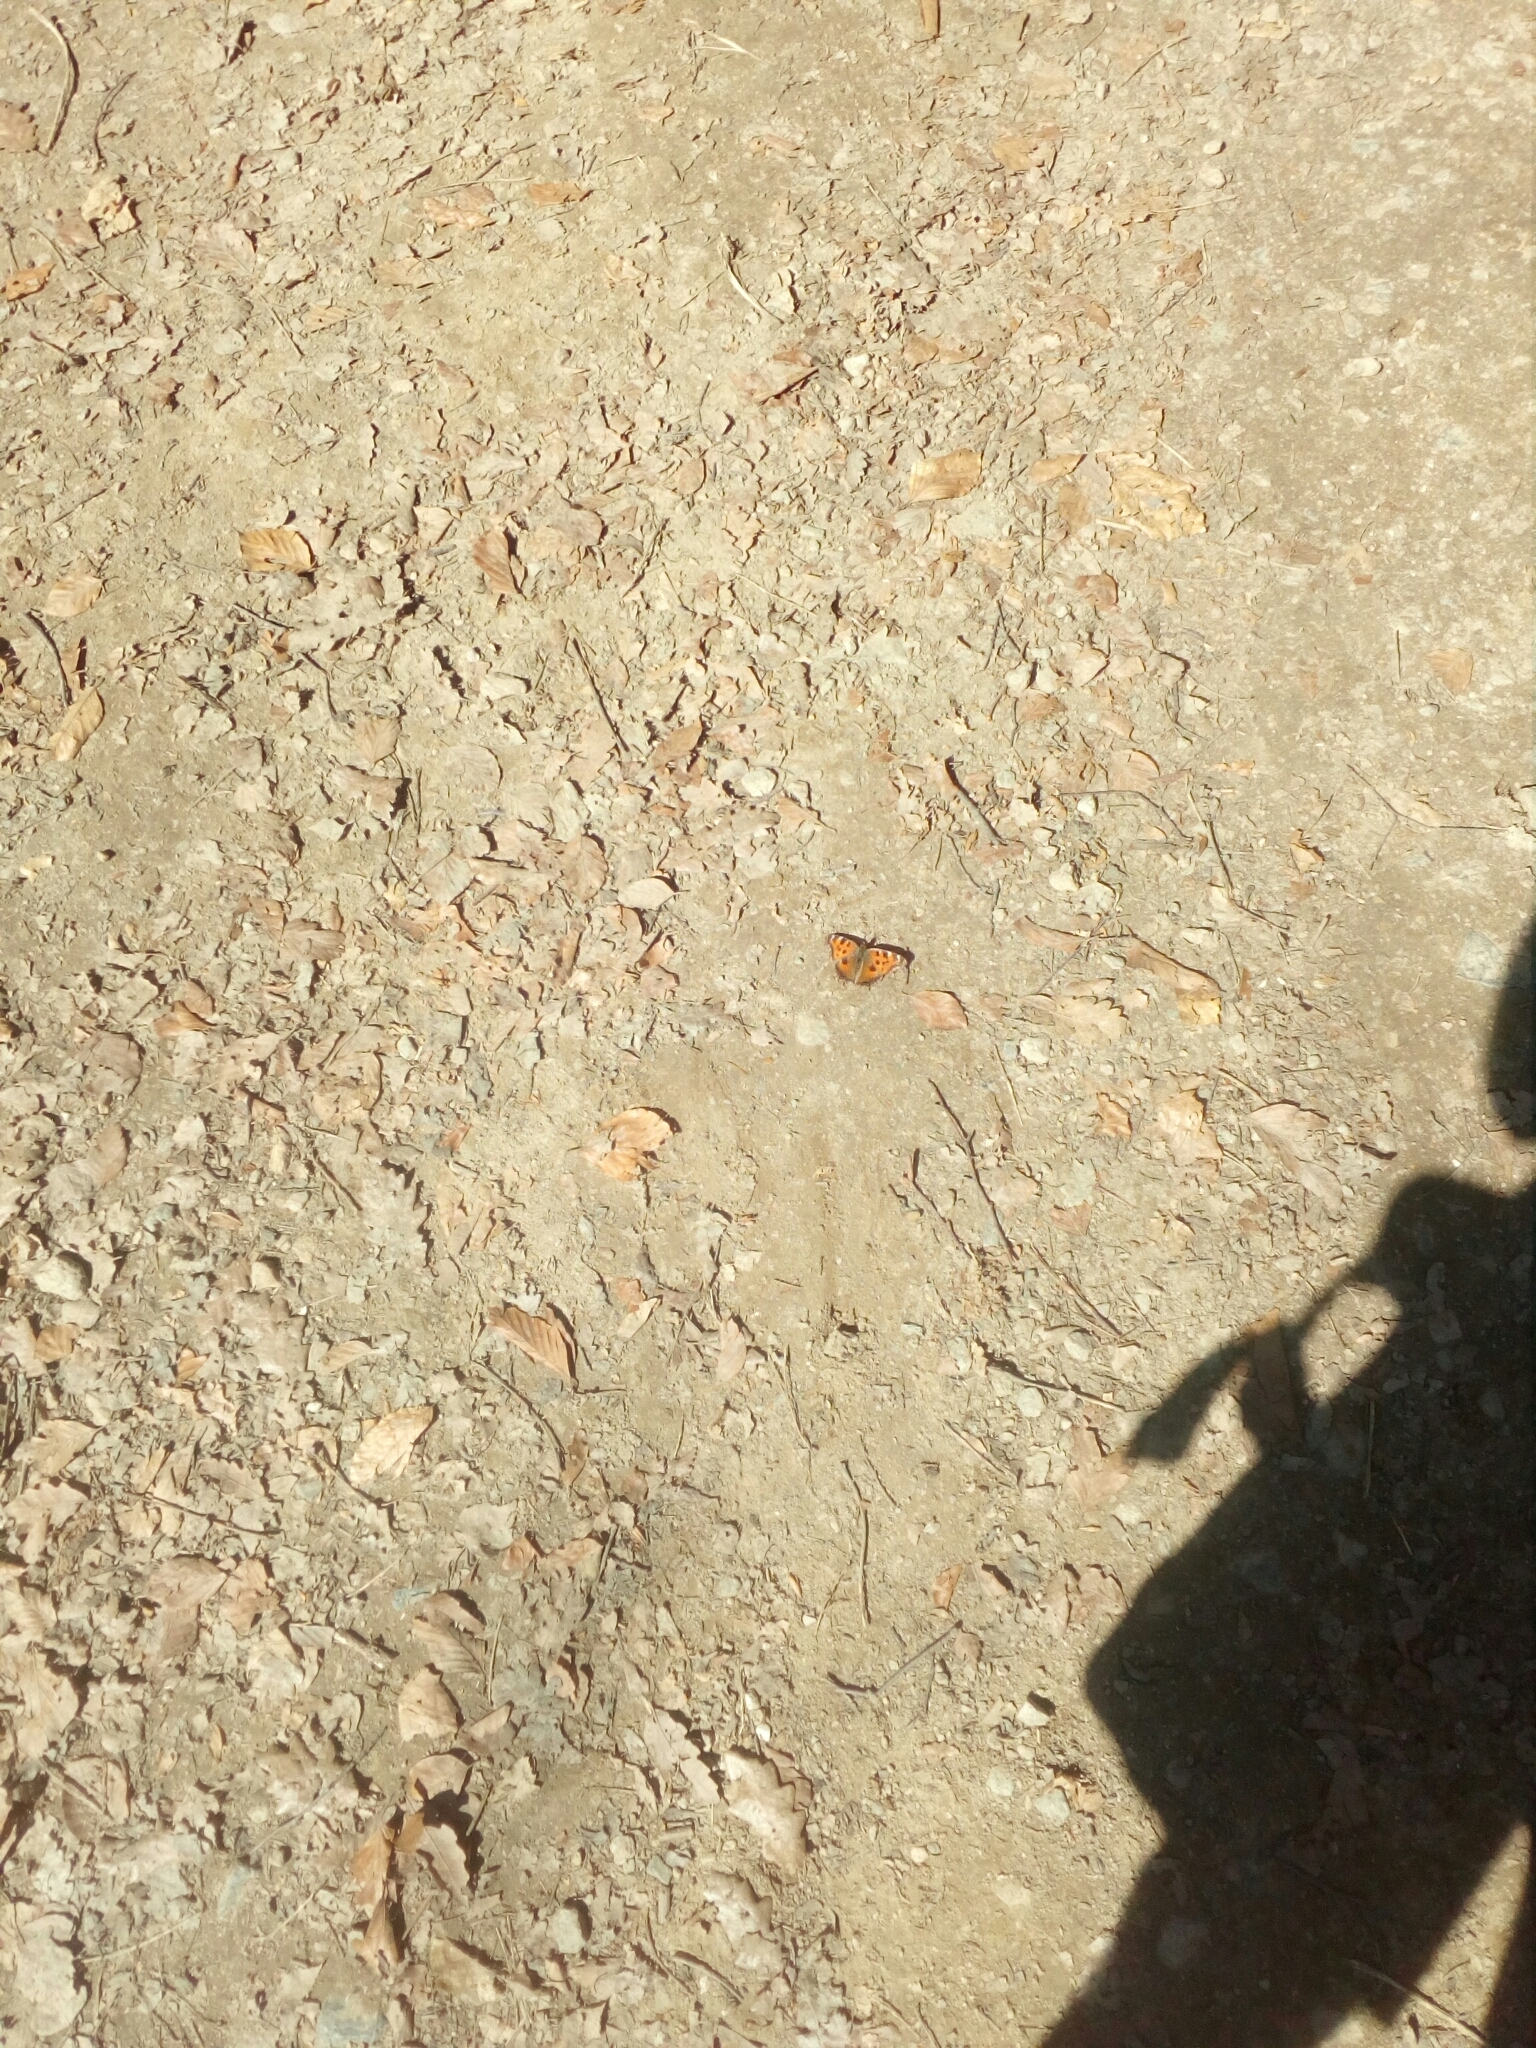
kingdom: Animalia
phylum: Arthropoda
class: Insecta
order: Lepidoptera
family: Nymphalidae
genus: Nymphalis
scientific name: Nymphalis xanthomelas
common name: Scarce tortoiseshell
